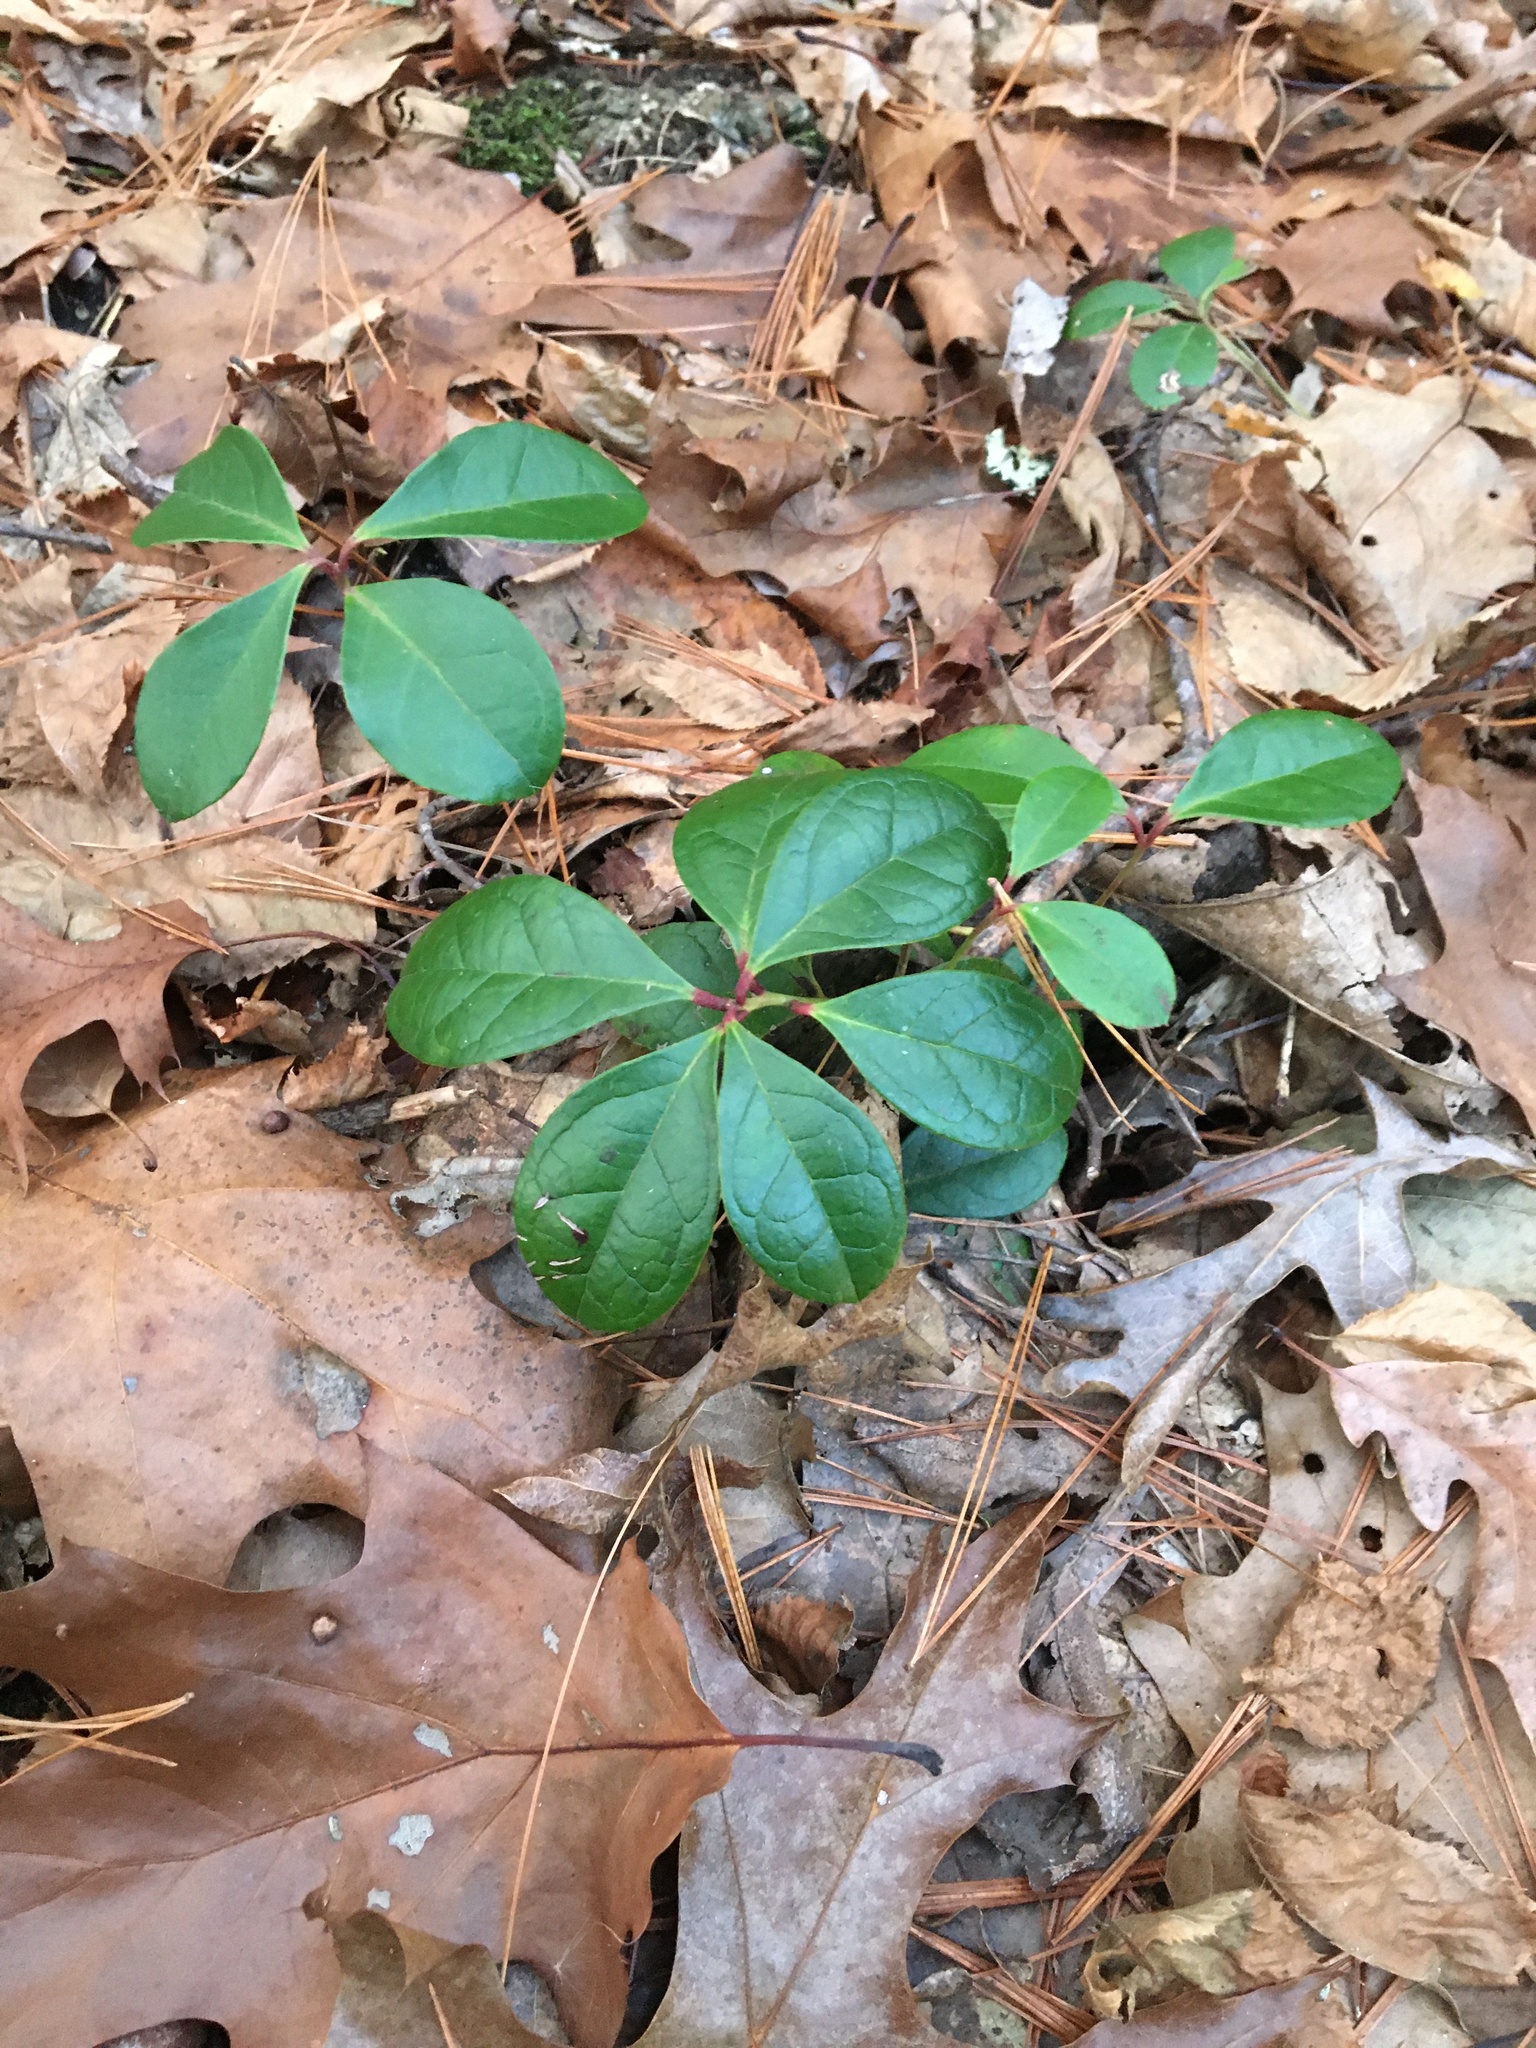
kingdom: Plantae
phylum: Tracheophyta
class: Magnoliopsida
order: Ericales
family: Ericaceae
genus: Gaultheria
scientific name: Gaultheria procumbens
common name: Checkerberry
